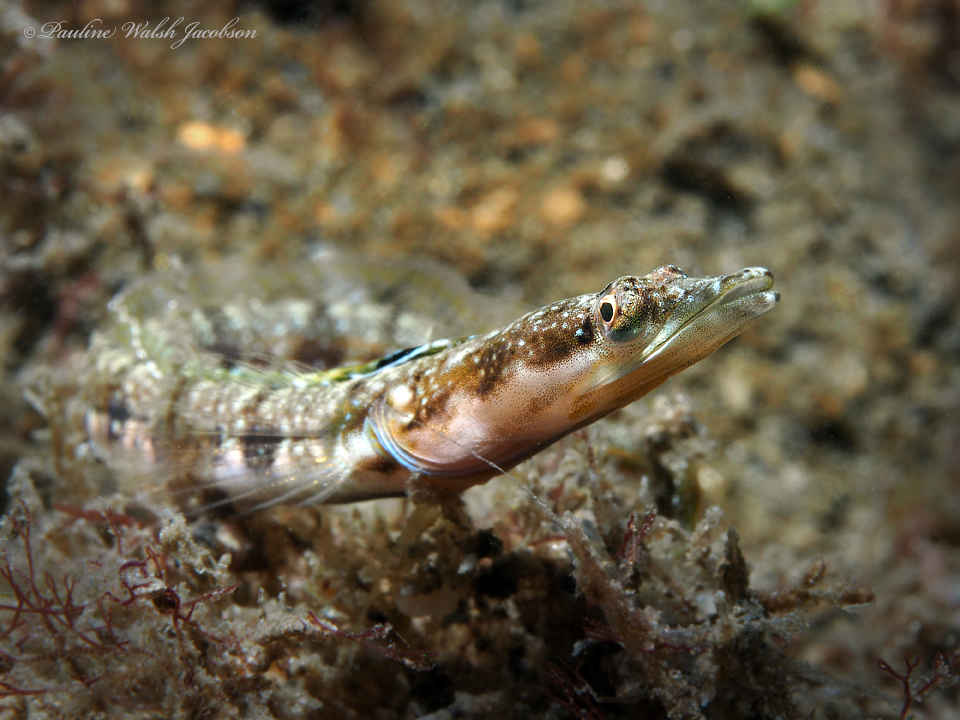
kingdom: Animalia
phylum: Chordata
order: Perciformes
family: Chaenopsidae
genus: Chaenopsis
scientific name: Chaenopsis ocellata
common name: Bluethroat pikeblenny
